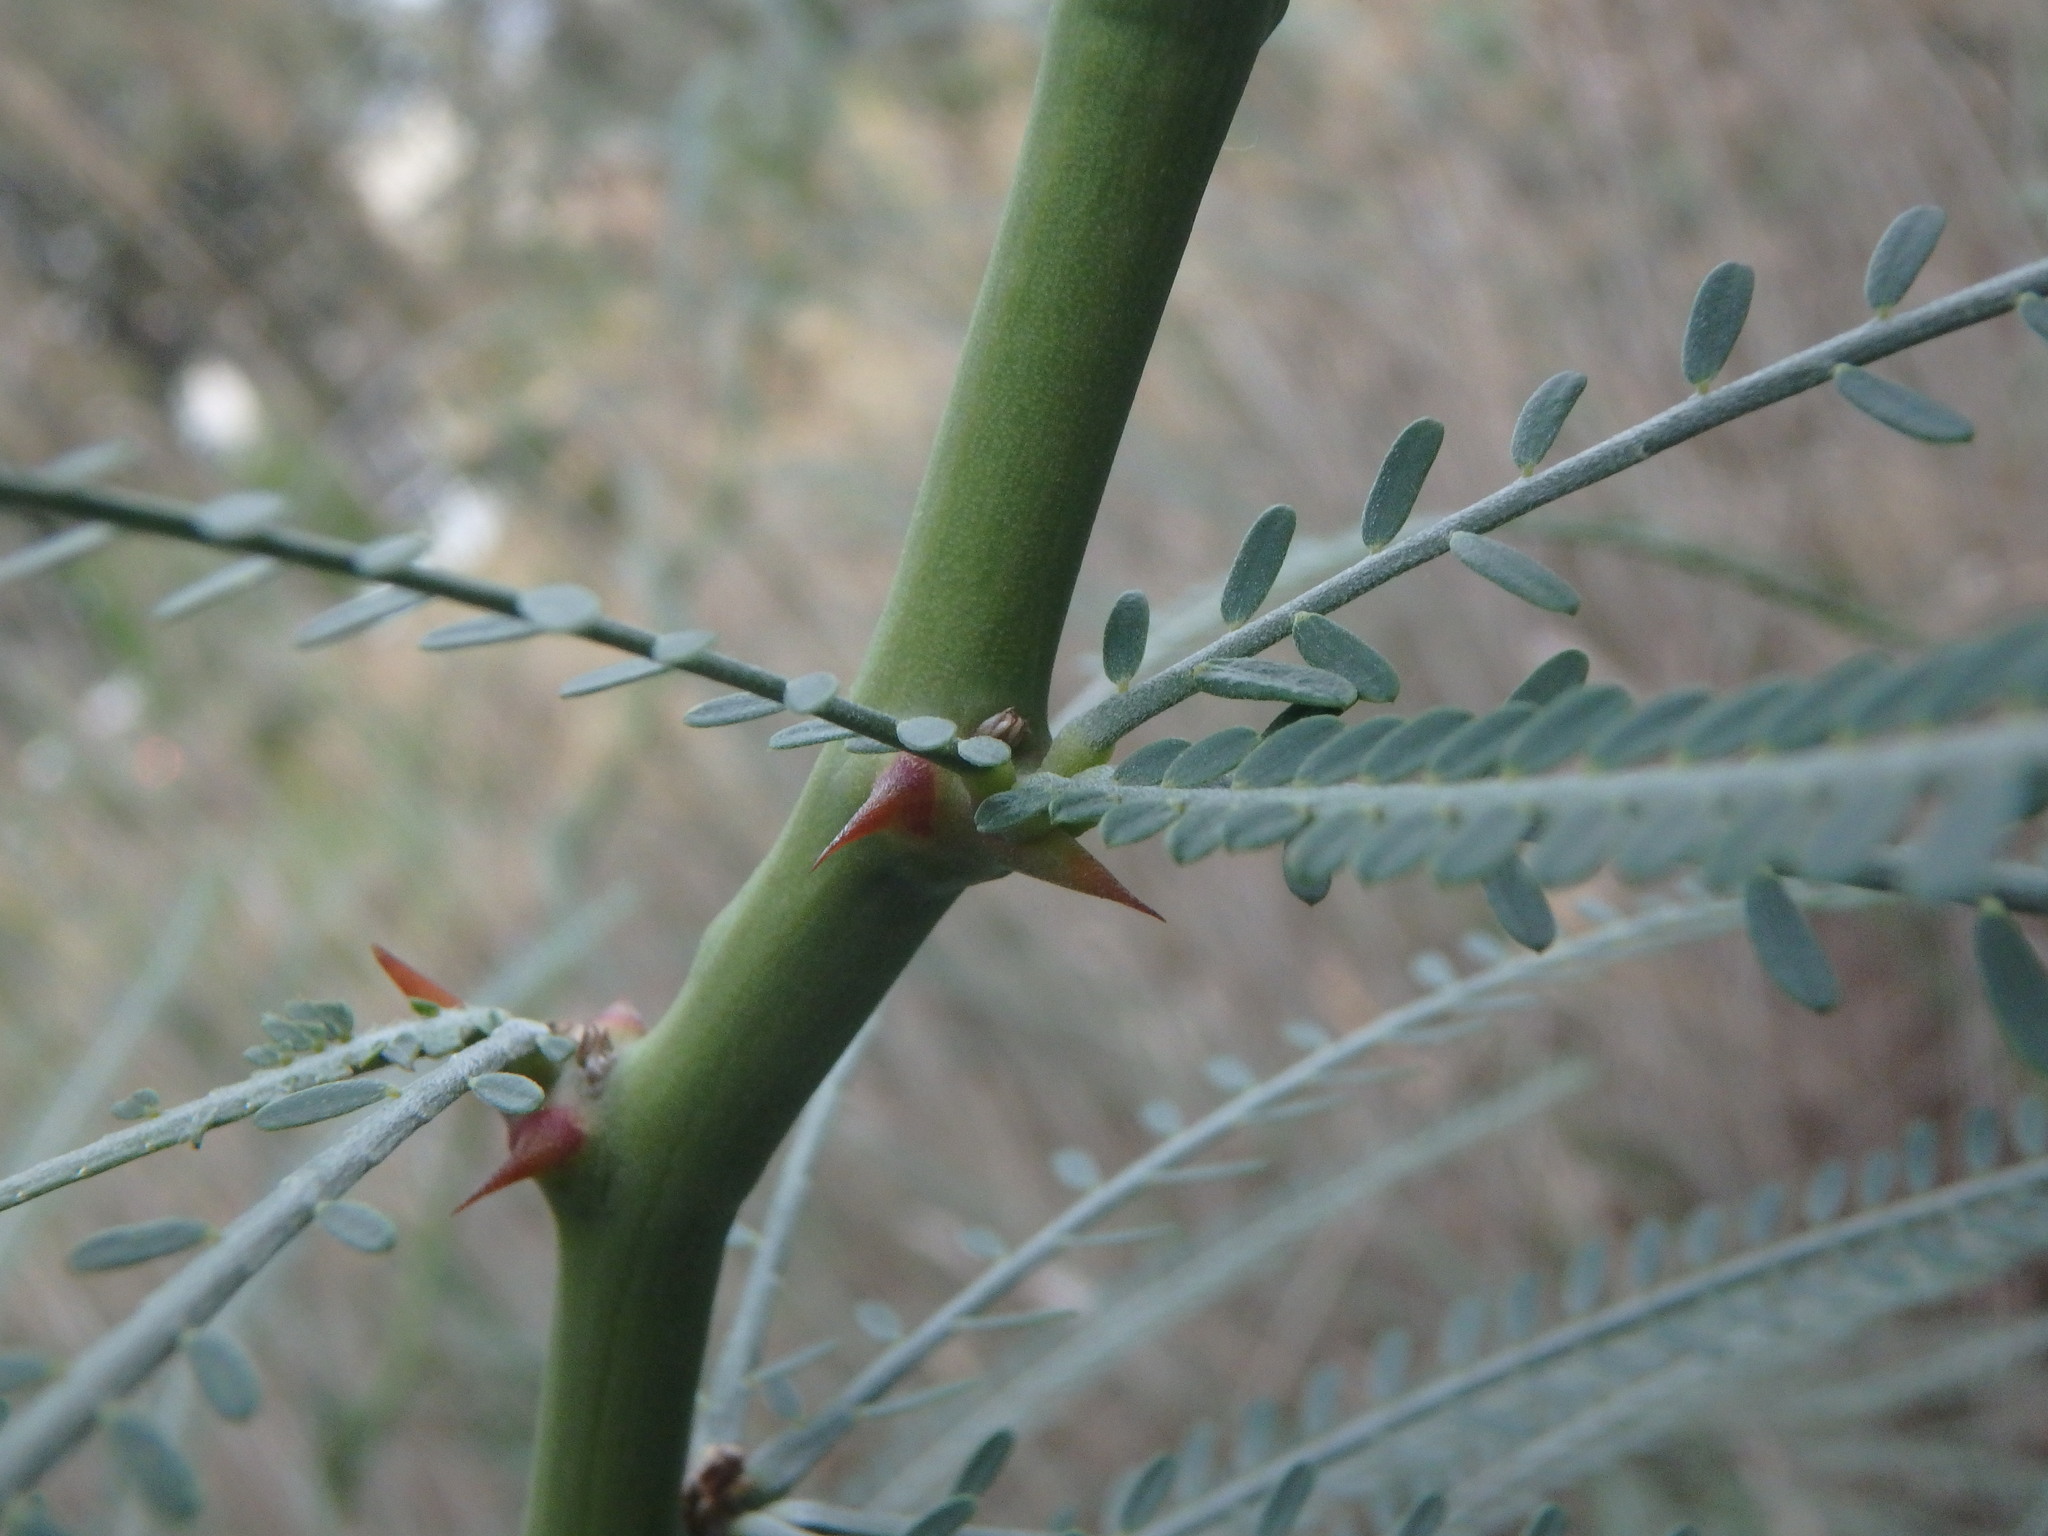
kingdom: Plantae
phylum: Tracheophyta
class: Magnoliopsida
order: Fabales
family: Fabaceae
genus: Parkinsonia
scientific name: Parkinsonia aculeata
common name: Jerusalem thorn
